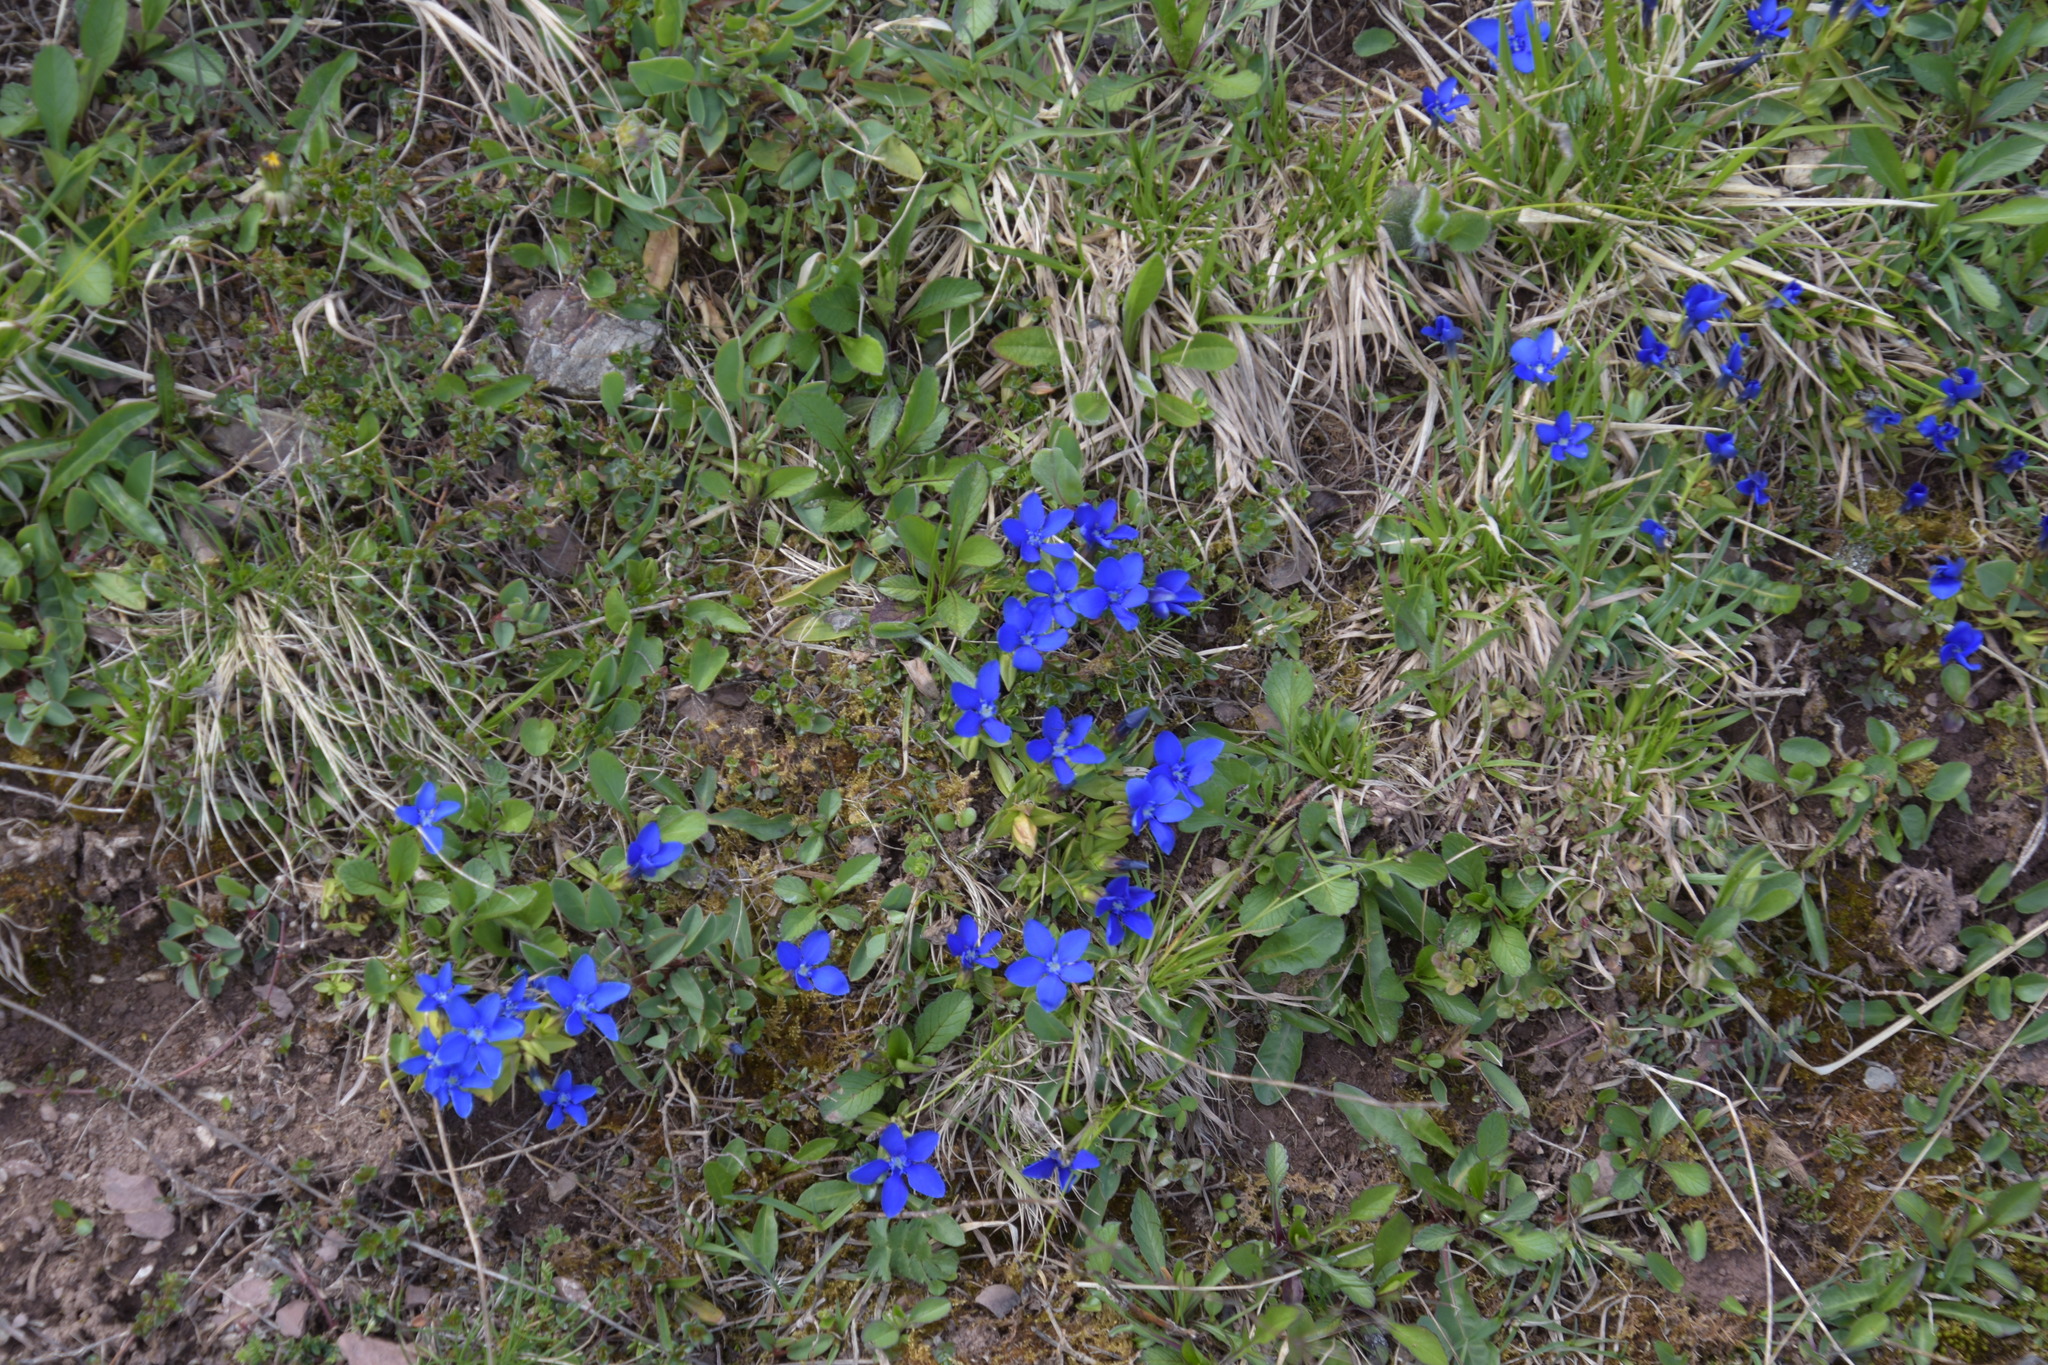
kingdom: Plantae
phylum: Tracheophyta
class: Magnoliopsida
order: Gentianales
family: Gentianaceae
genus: Gentiana
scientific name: Gentiana verna
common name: Spring gentian
